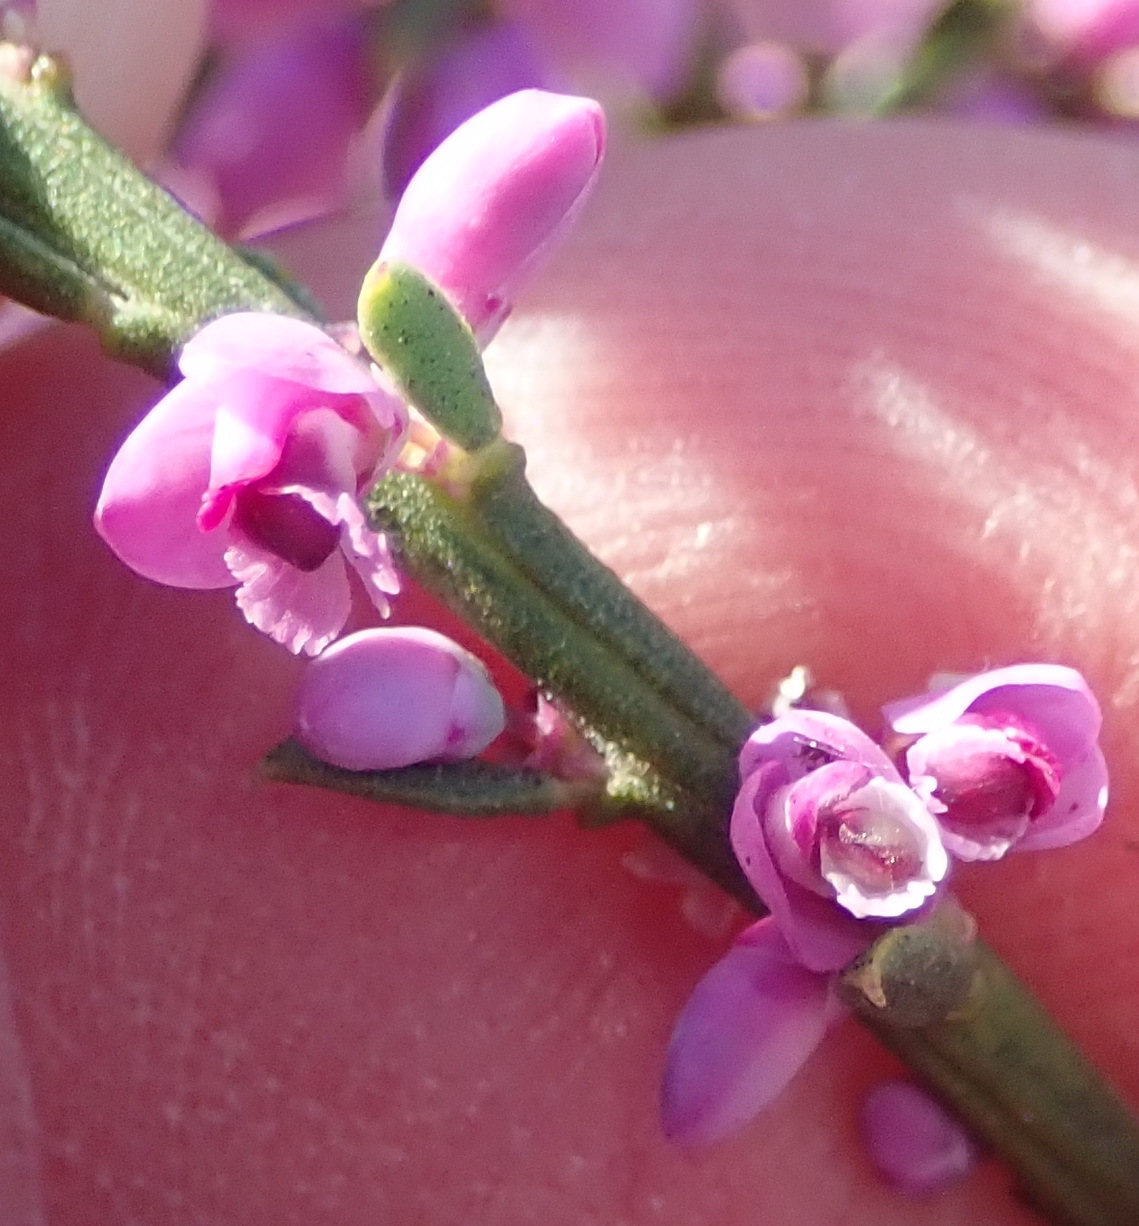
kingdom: Plantae
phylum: Tracheophyta
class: Magnoliopsida
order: Fabales
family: Polygalaceae
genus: Muraltia
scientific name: Muraltia spinosa
